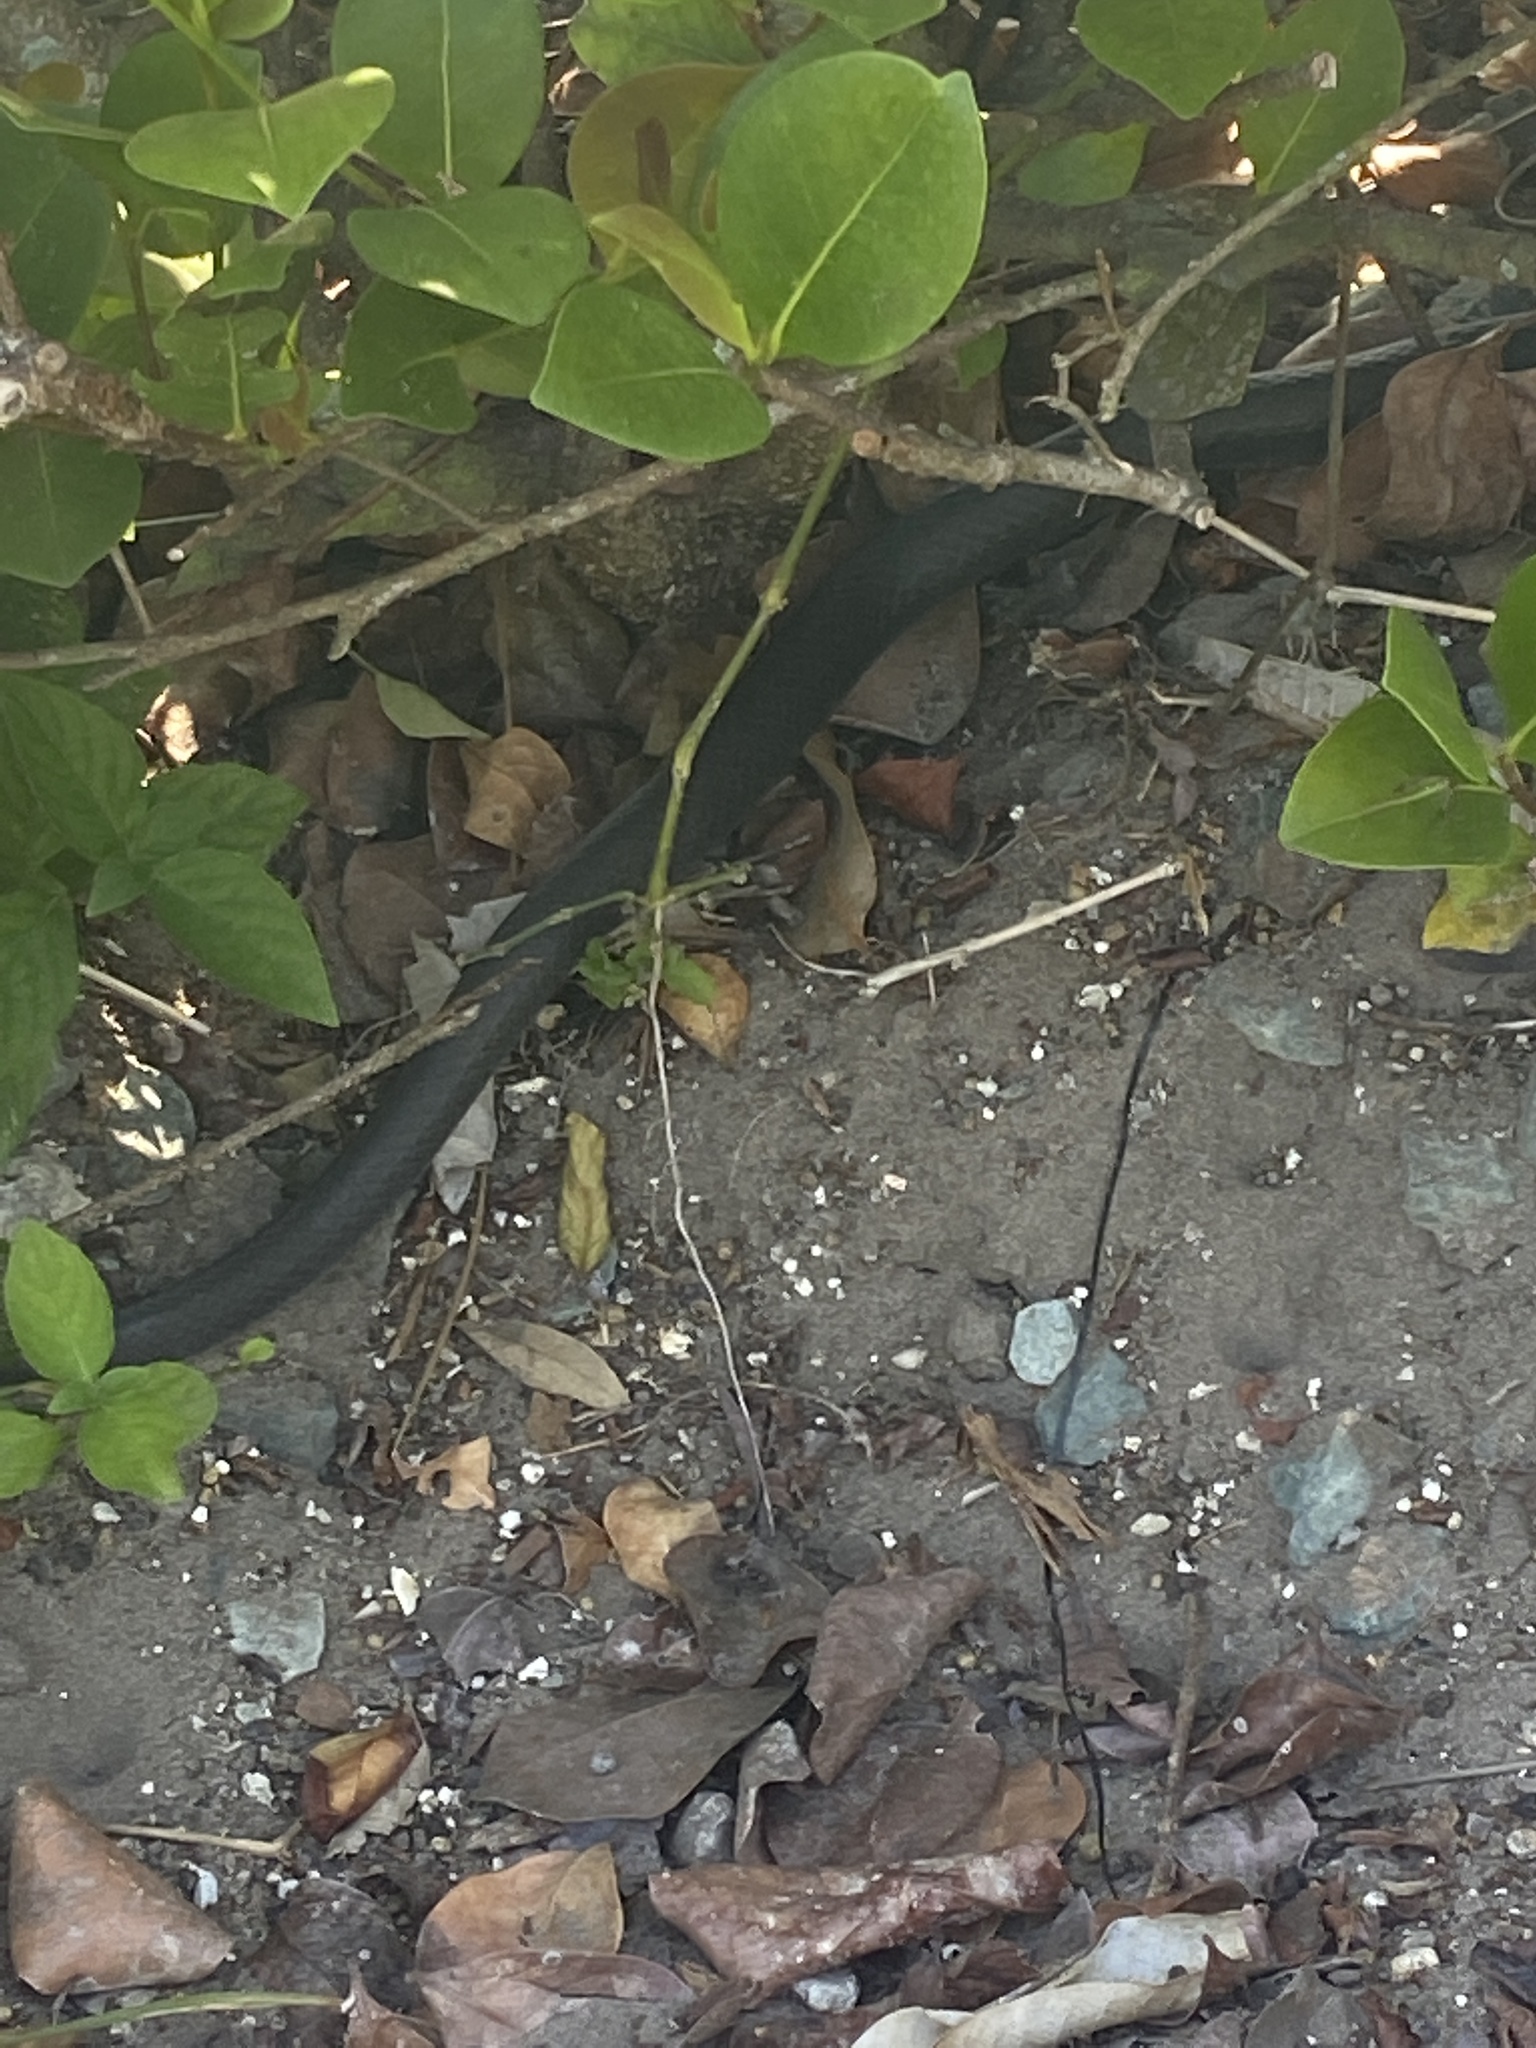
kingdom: Animalia
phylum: Chordata
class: Squamata
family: Colubridae
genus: Coluber
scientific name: Coluber constrictor
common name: Eastern racer
